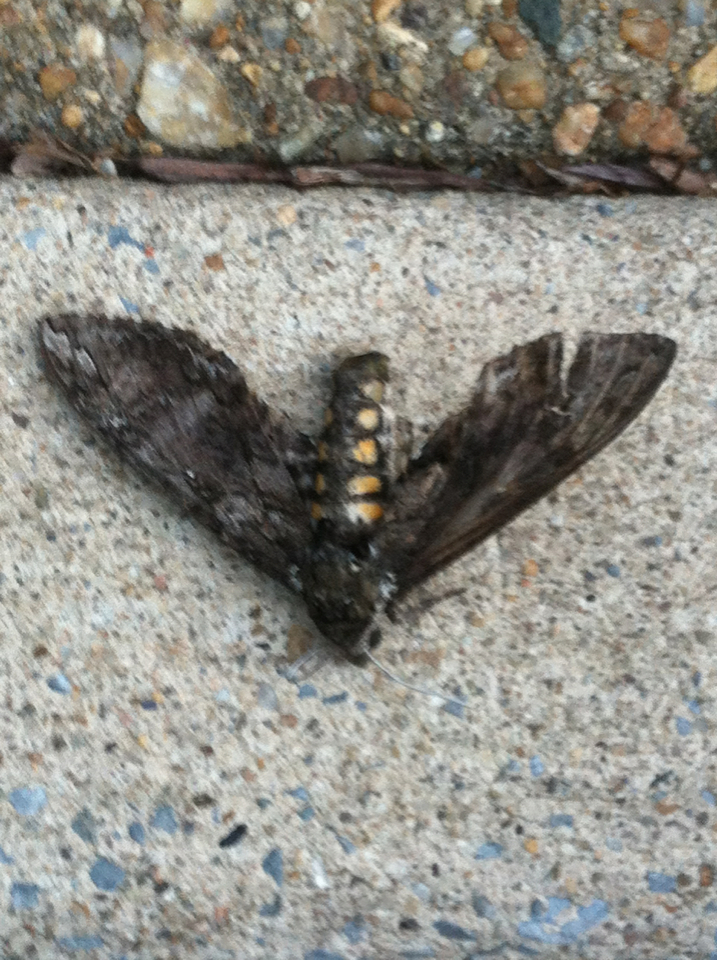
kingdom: Animalia
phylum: Arthropoda
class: Insecta
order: Lepidoptera
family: Sphingidae
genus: Manduca
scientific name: Manduca sexta
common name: Carolina sphinx
